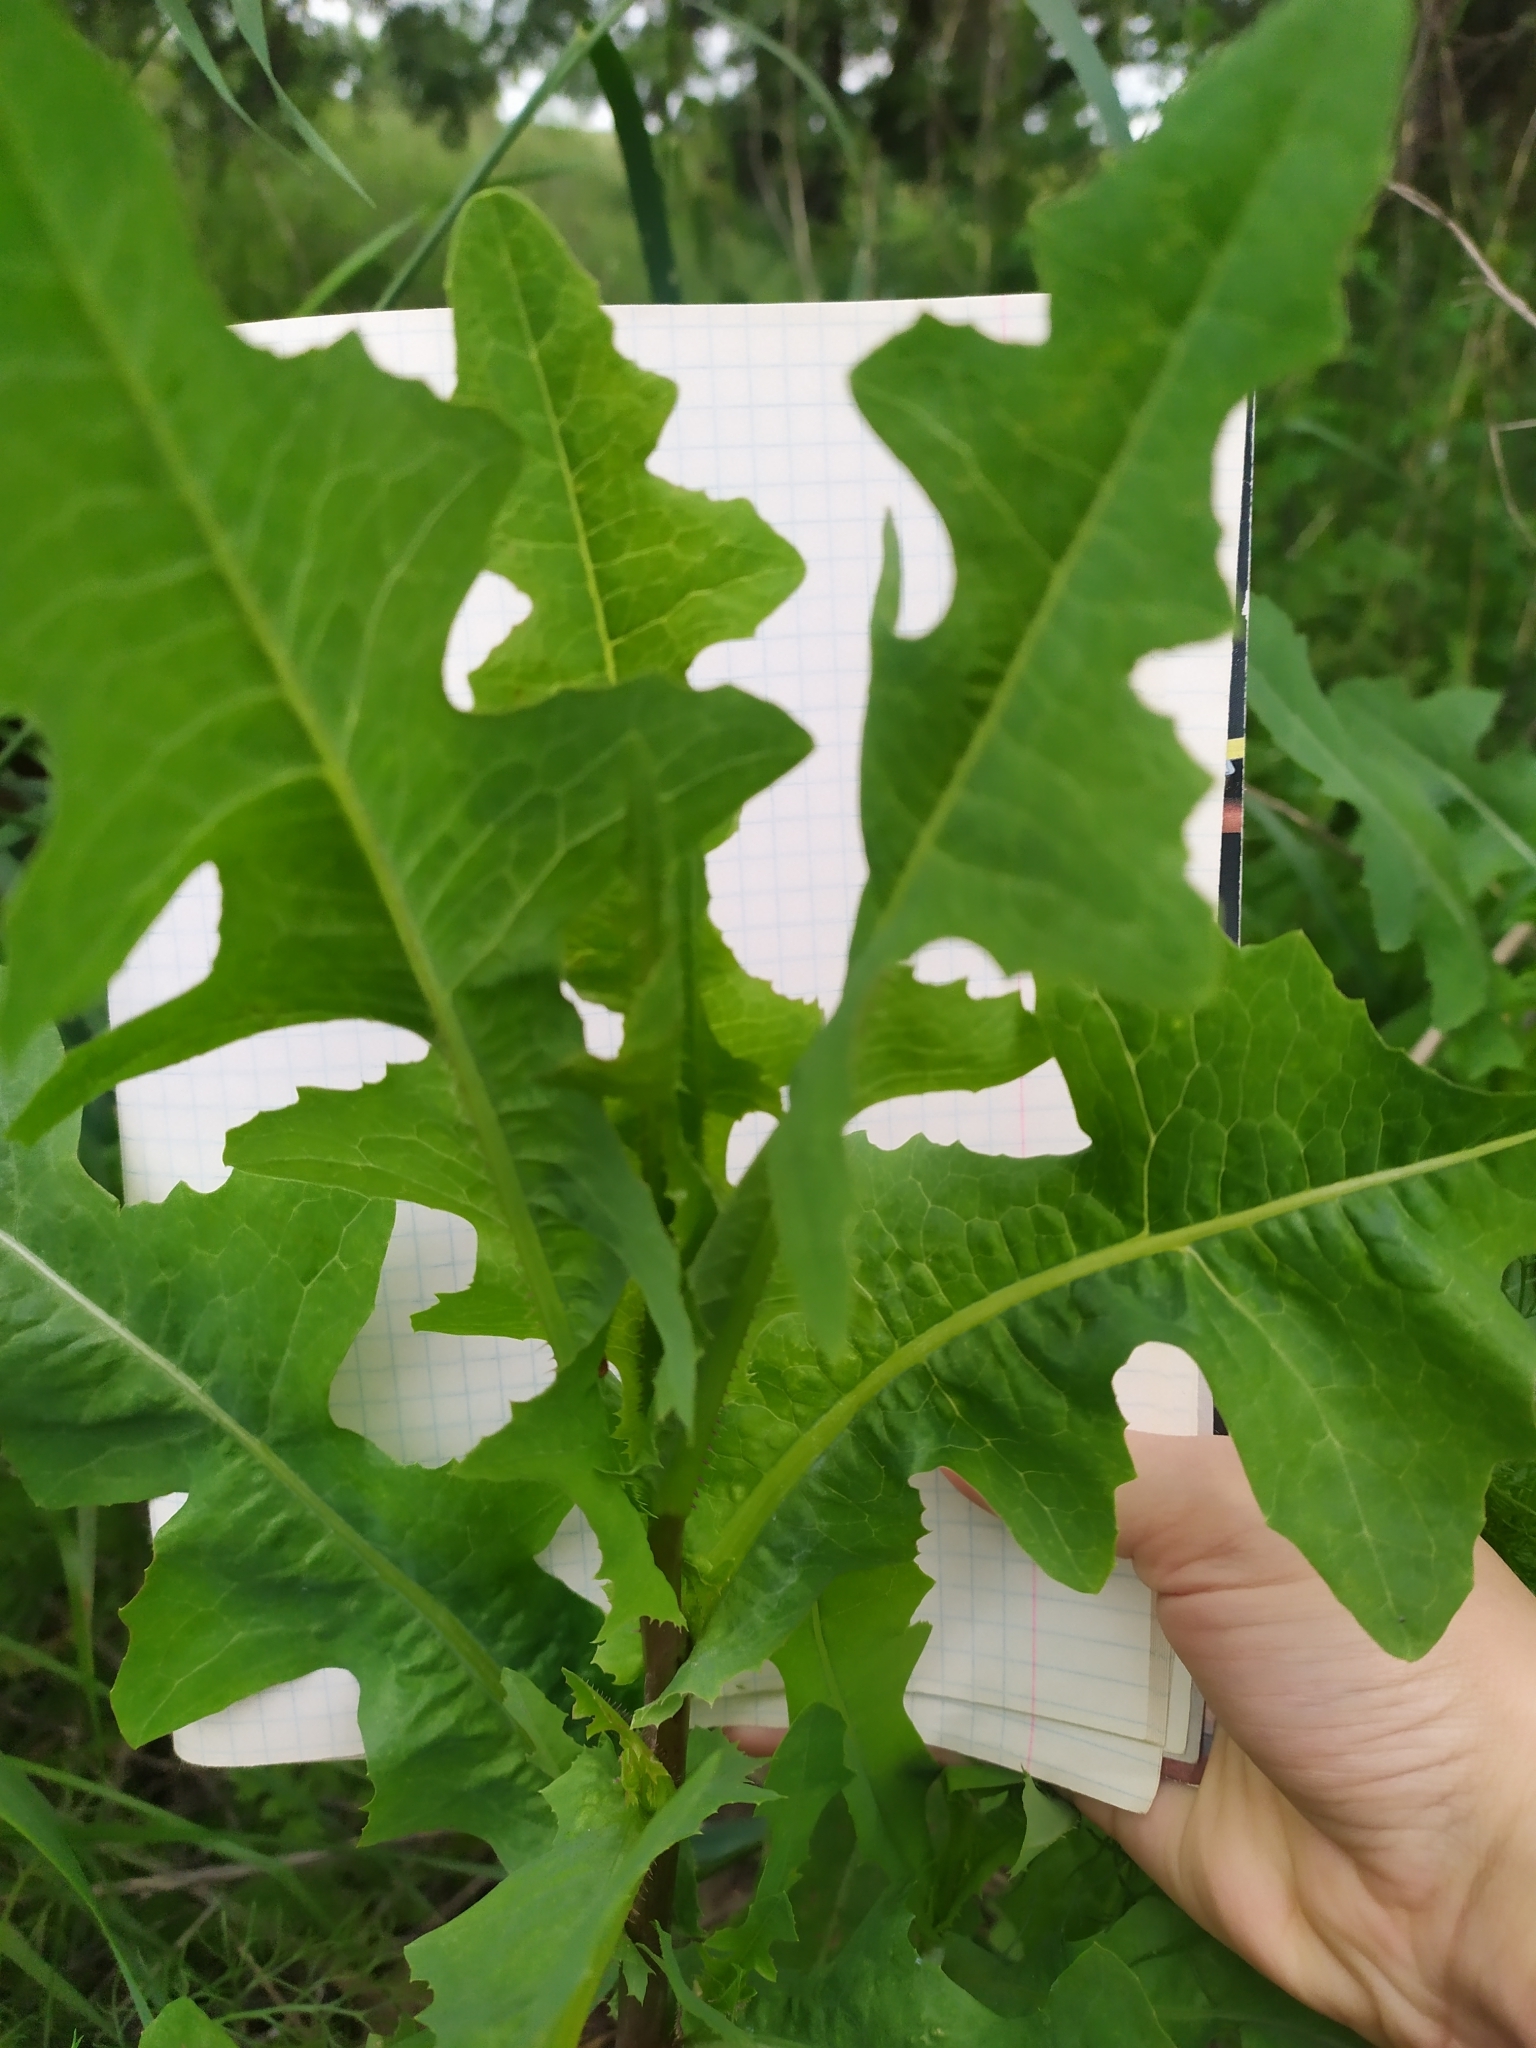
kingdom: Plantae
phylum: Tracheophyta
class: Magnoliopsida
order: Asterales
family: Asteraceae
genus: Lactuca
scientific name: Lactuca serriola
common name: Prickly lettuce
